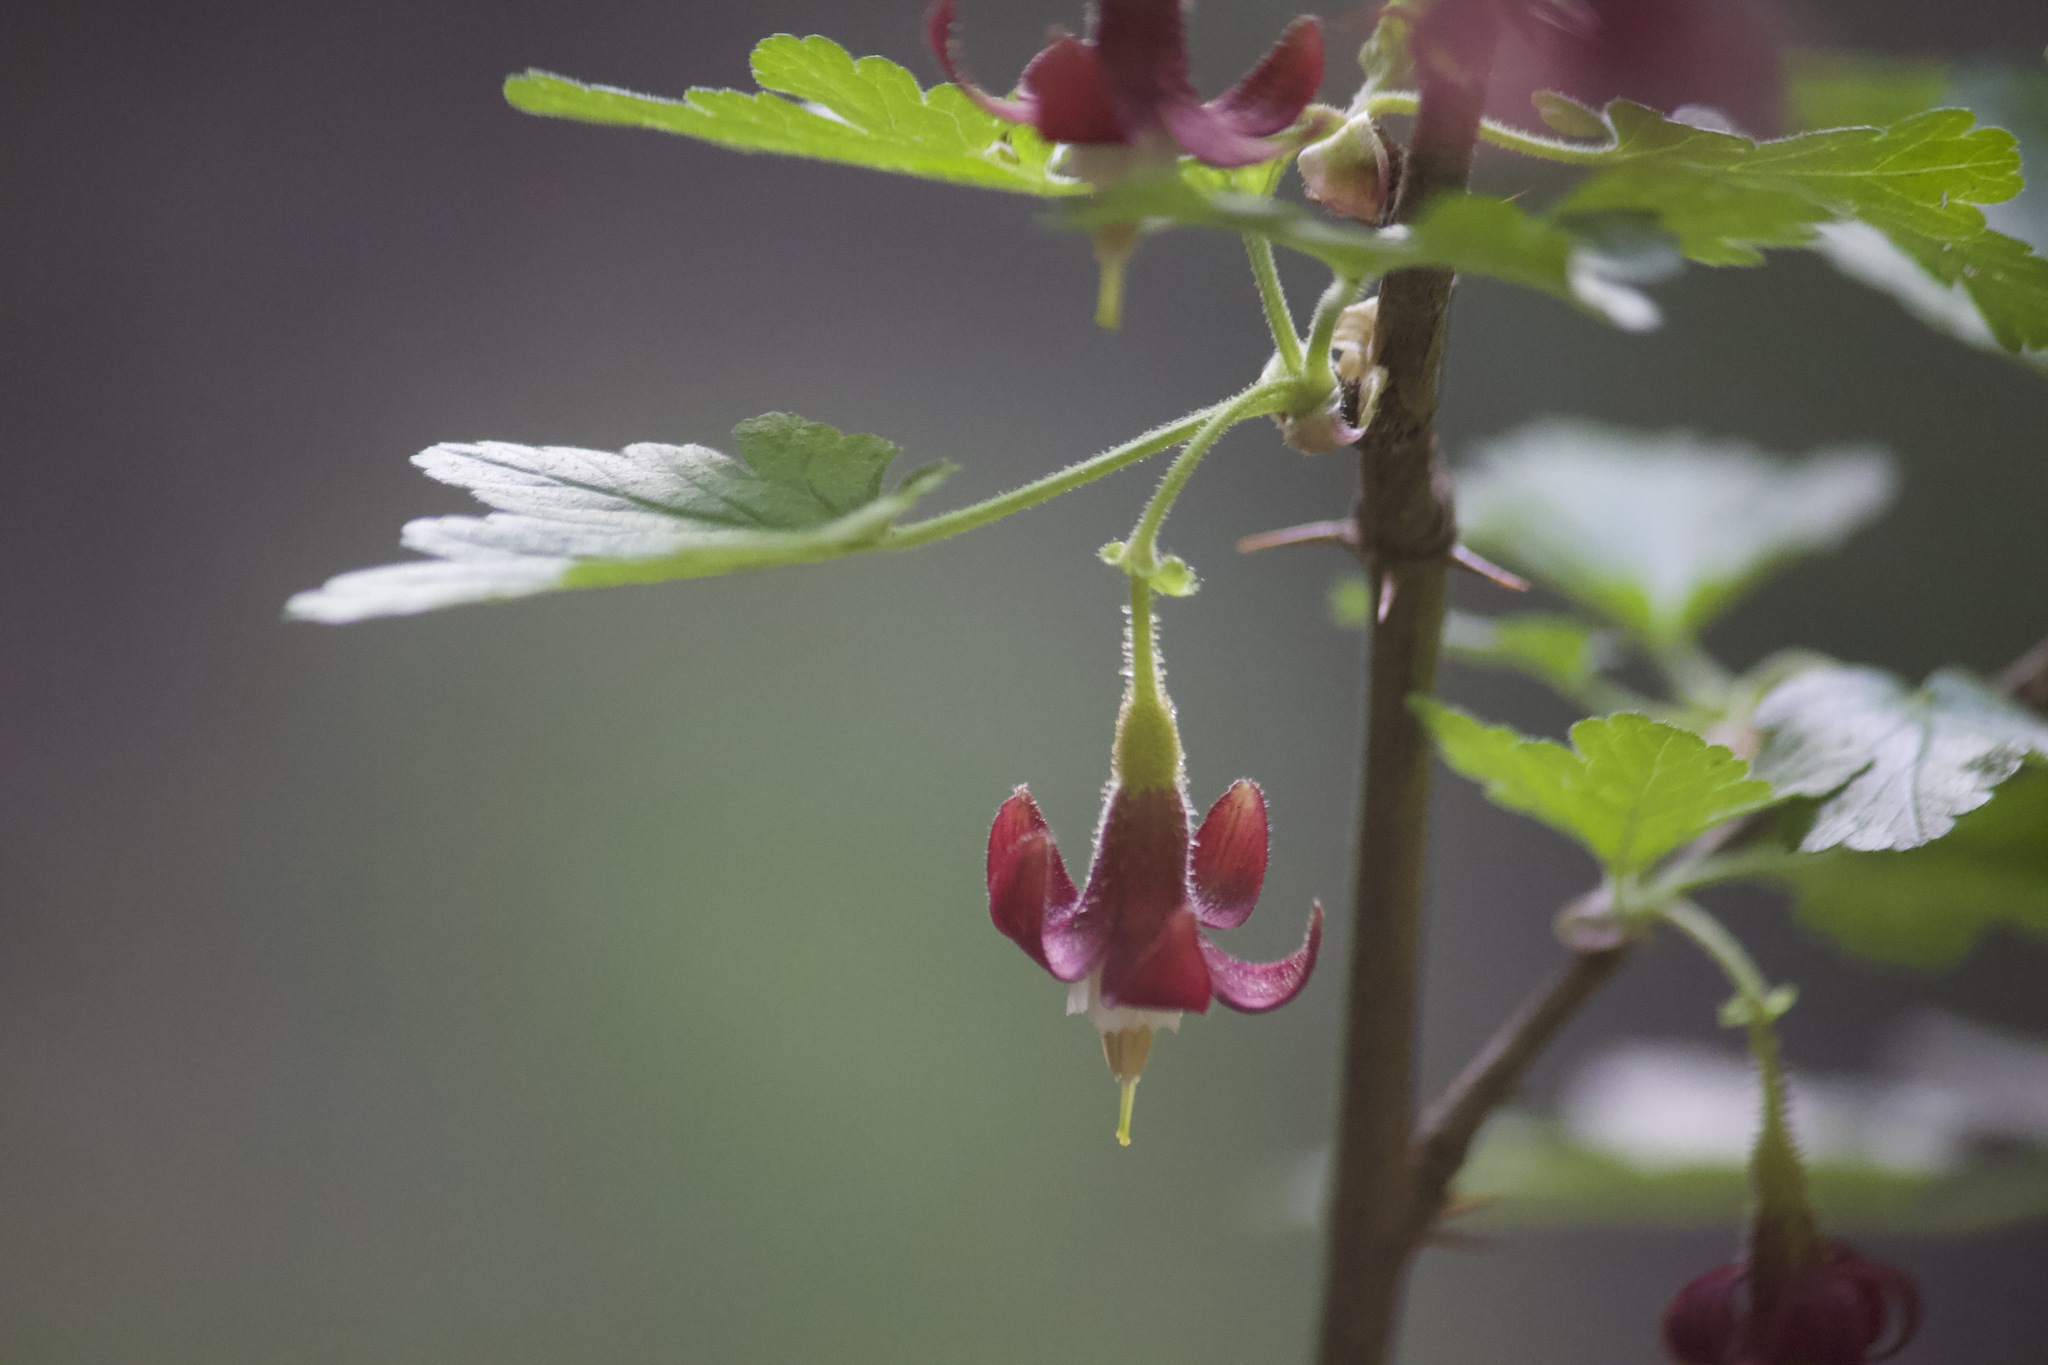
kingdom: Plantae
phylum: Tracheophyta
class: Magnoliopsida
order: Saxifragales
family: Grossulariaceae
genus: Ribes
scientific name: Ribes amarum
